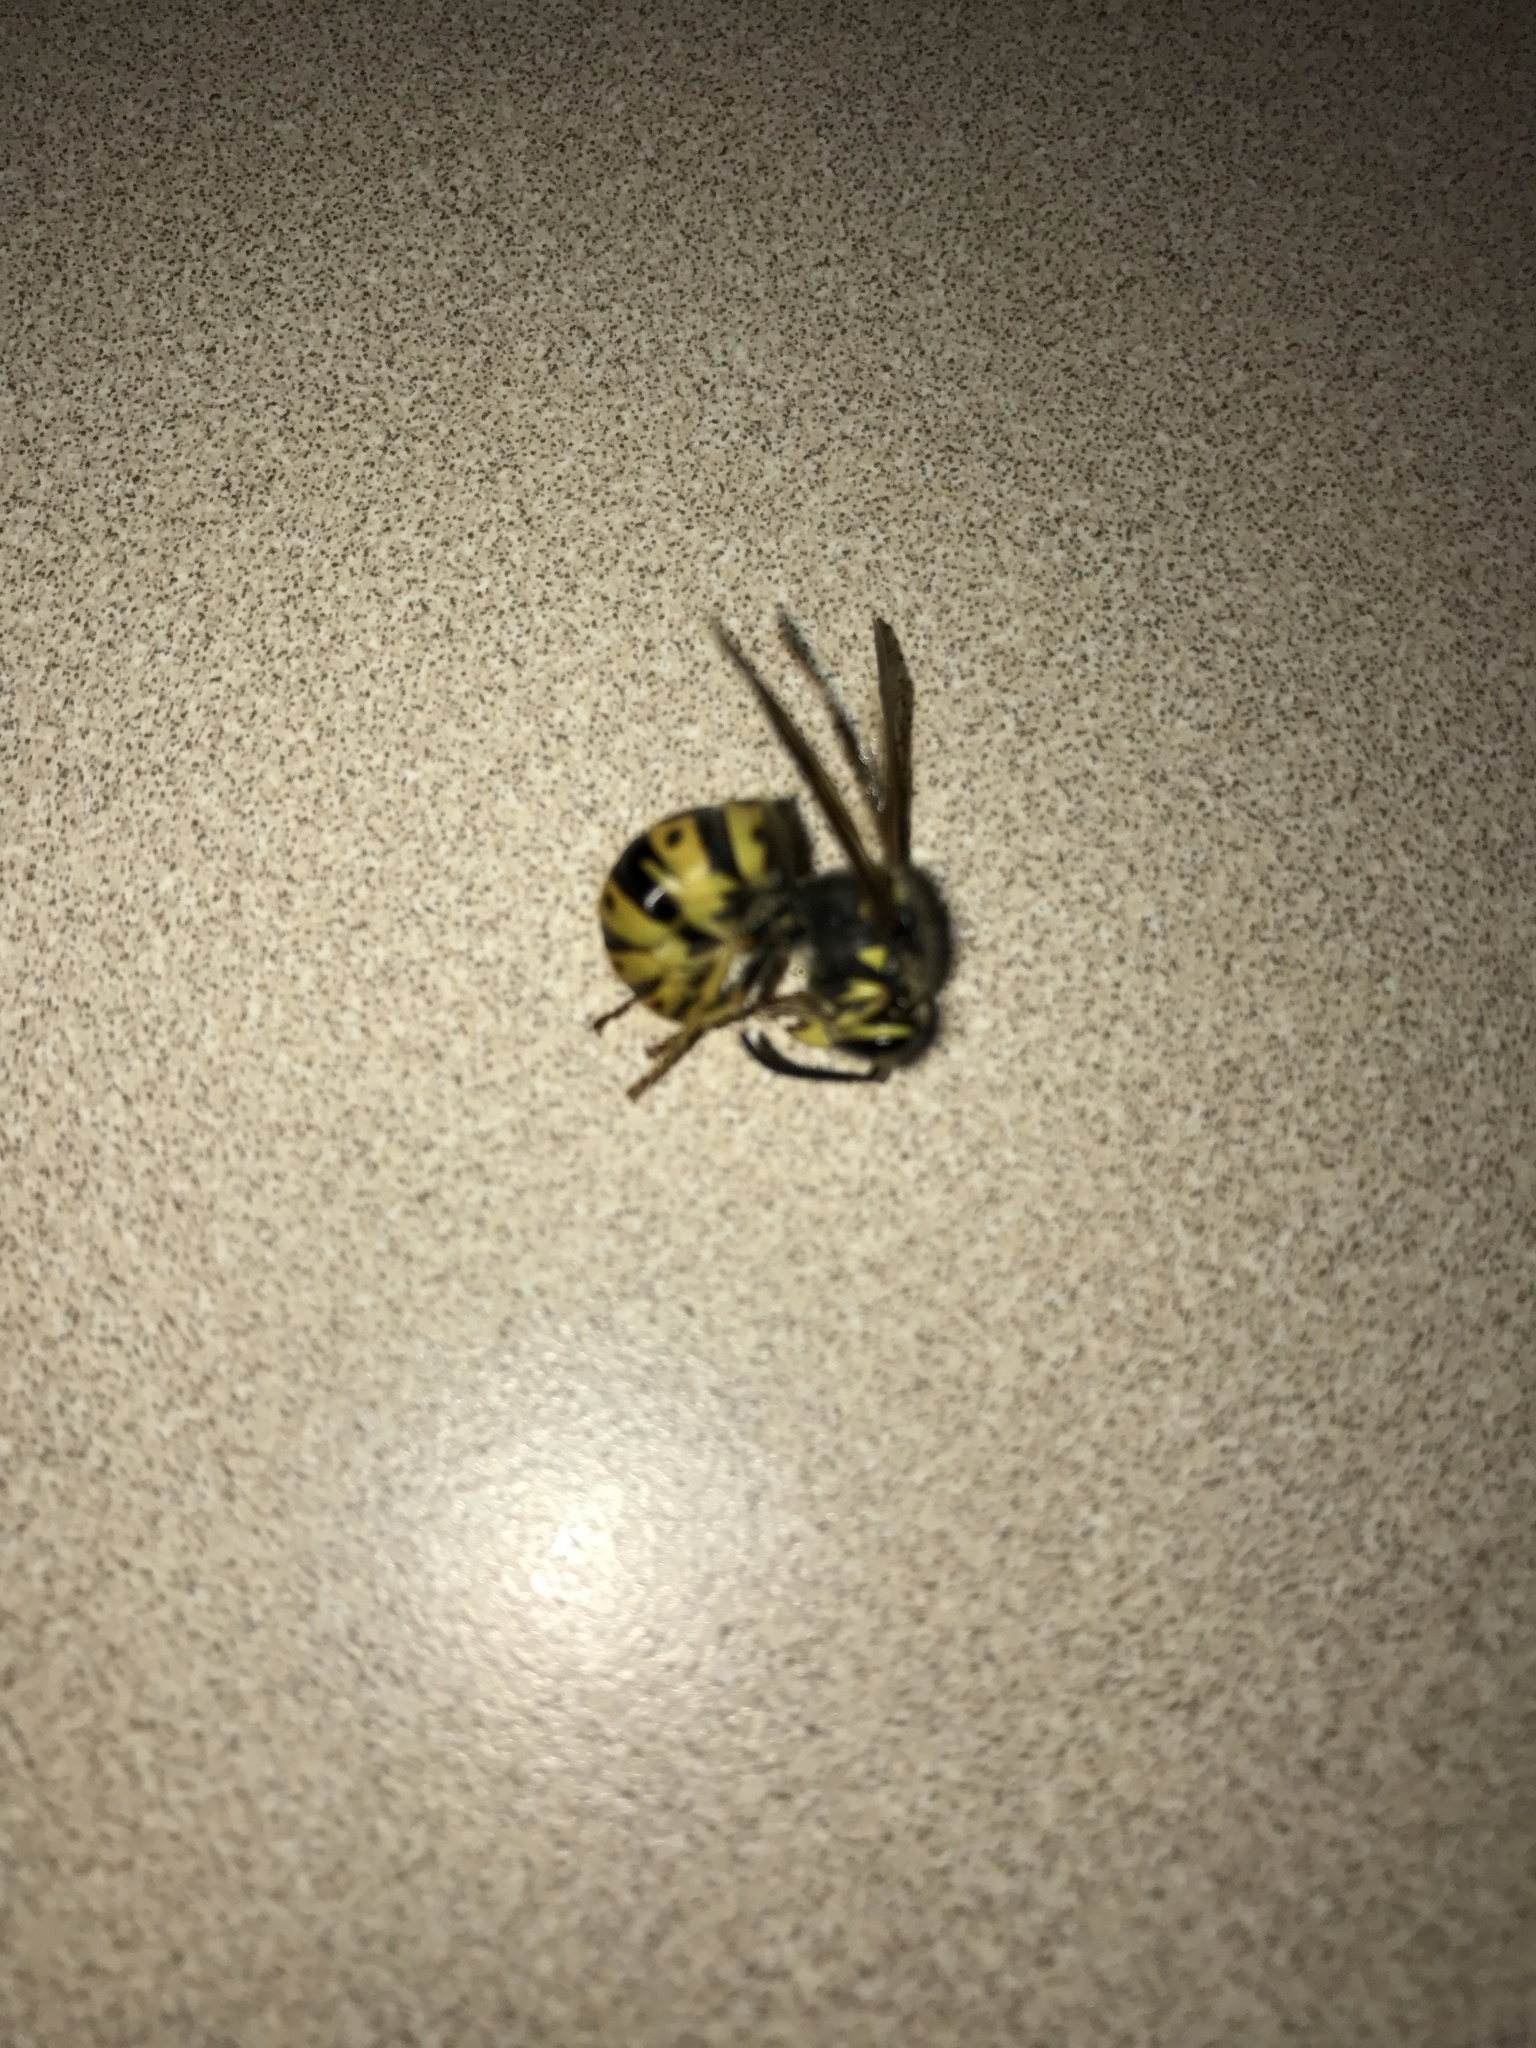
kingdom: Animalia
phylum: Arthropoda
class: Insecta
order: Hymenoptera
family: Vespidae
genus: Vespula
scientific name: Vespula germanica
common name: German wasp
